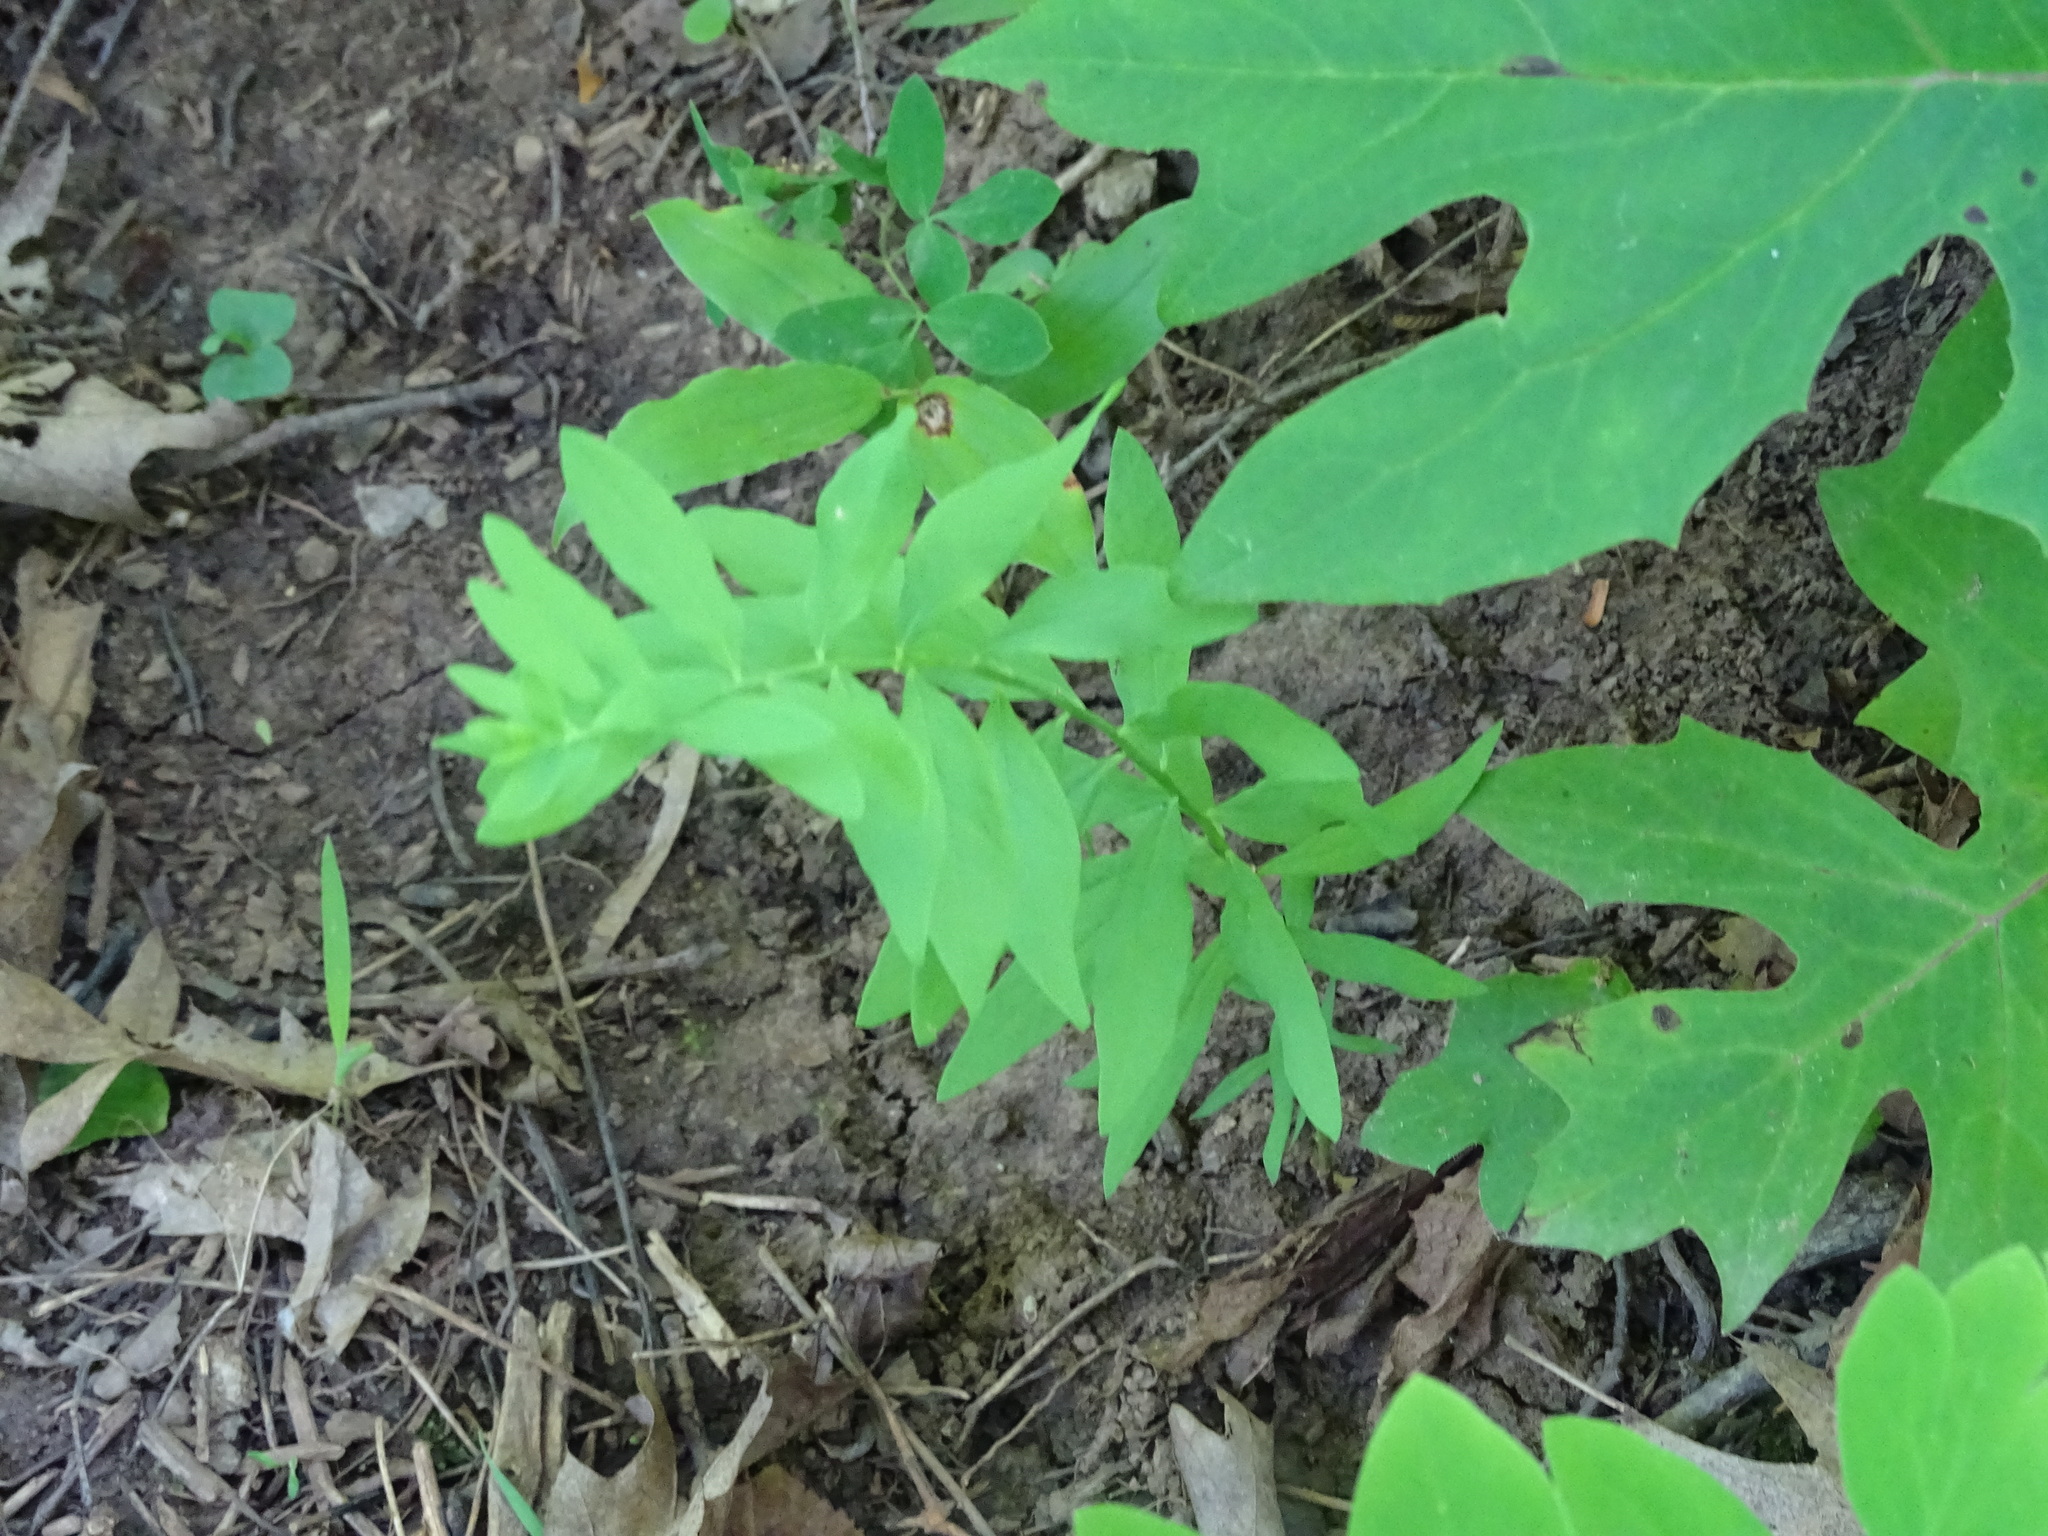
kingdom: Plantae
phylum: Tracheophyta
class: Magnoliopsida
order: Santalales
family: Comandraceae
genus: Comandra
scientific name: Comandra umbellata
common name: Bastard toadflax
